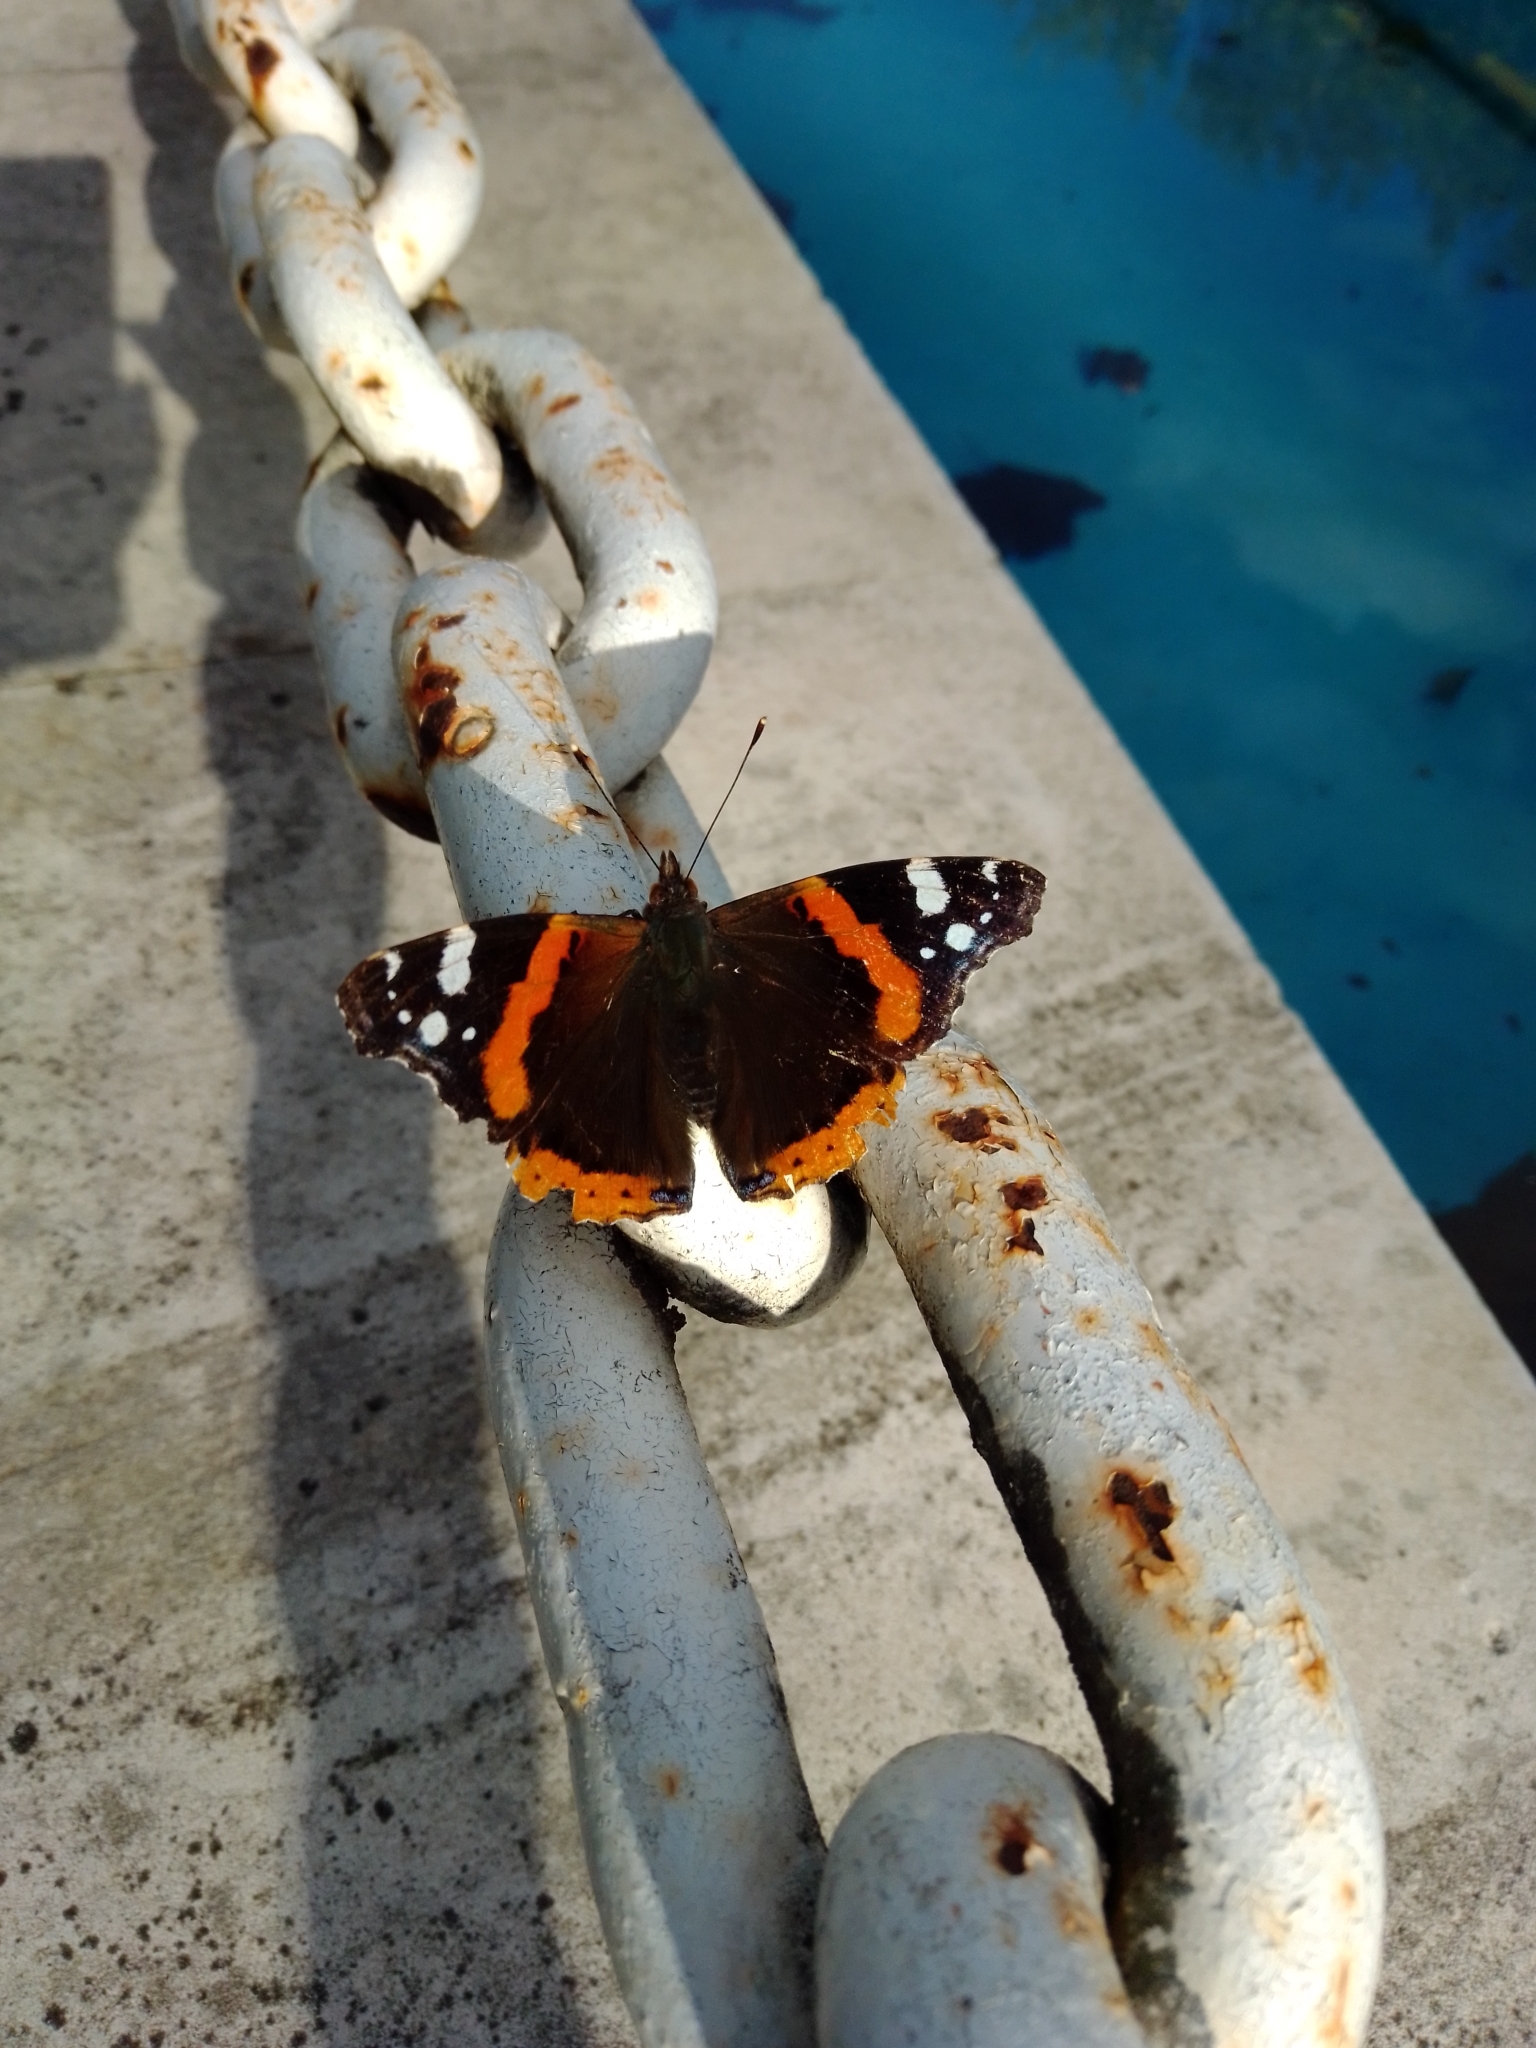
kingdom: Animalia
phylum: Arthropoda
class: Insecta
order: Lepidoptera
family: Nymphalidae
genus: Vanessa
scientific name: Vanessa atalanta
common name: Red admiral
